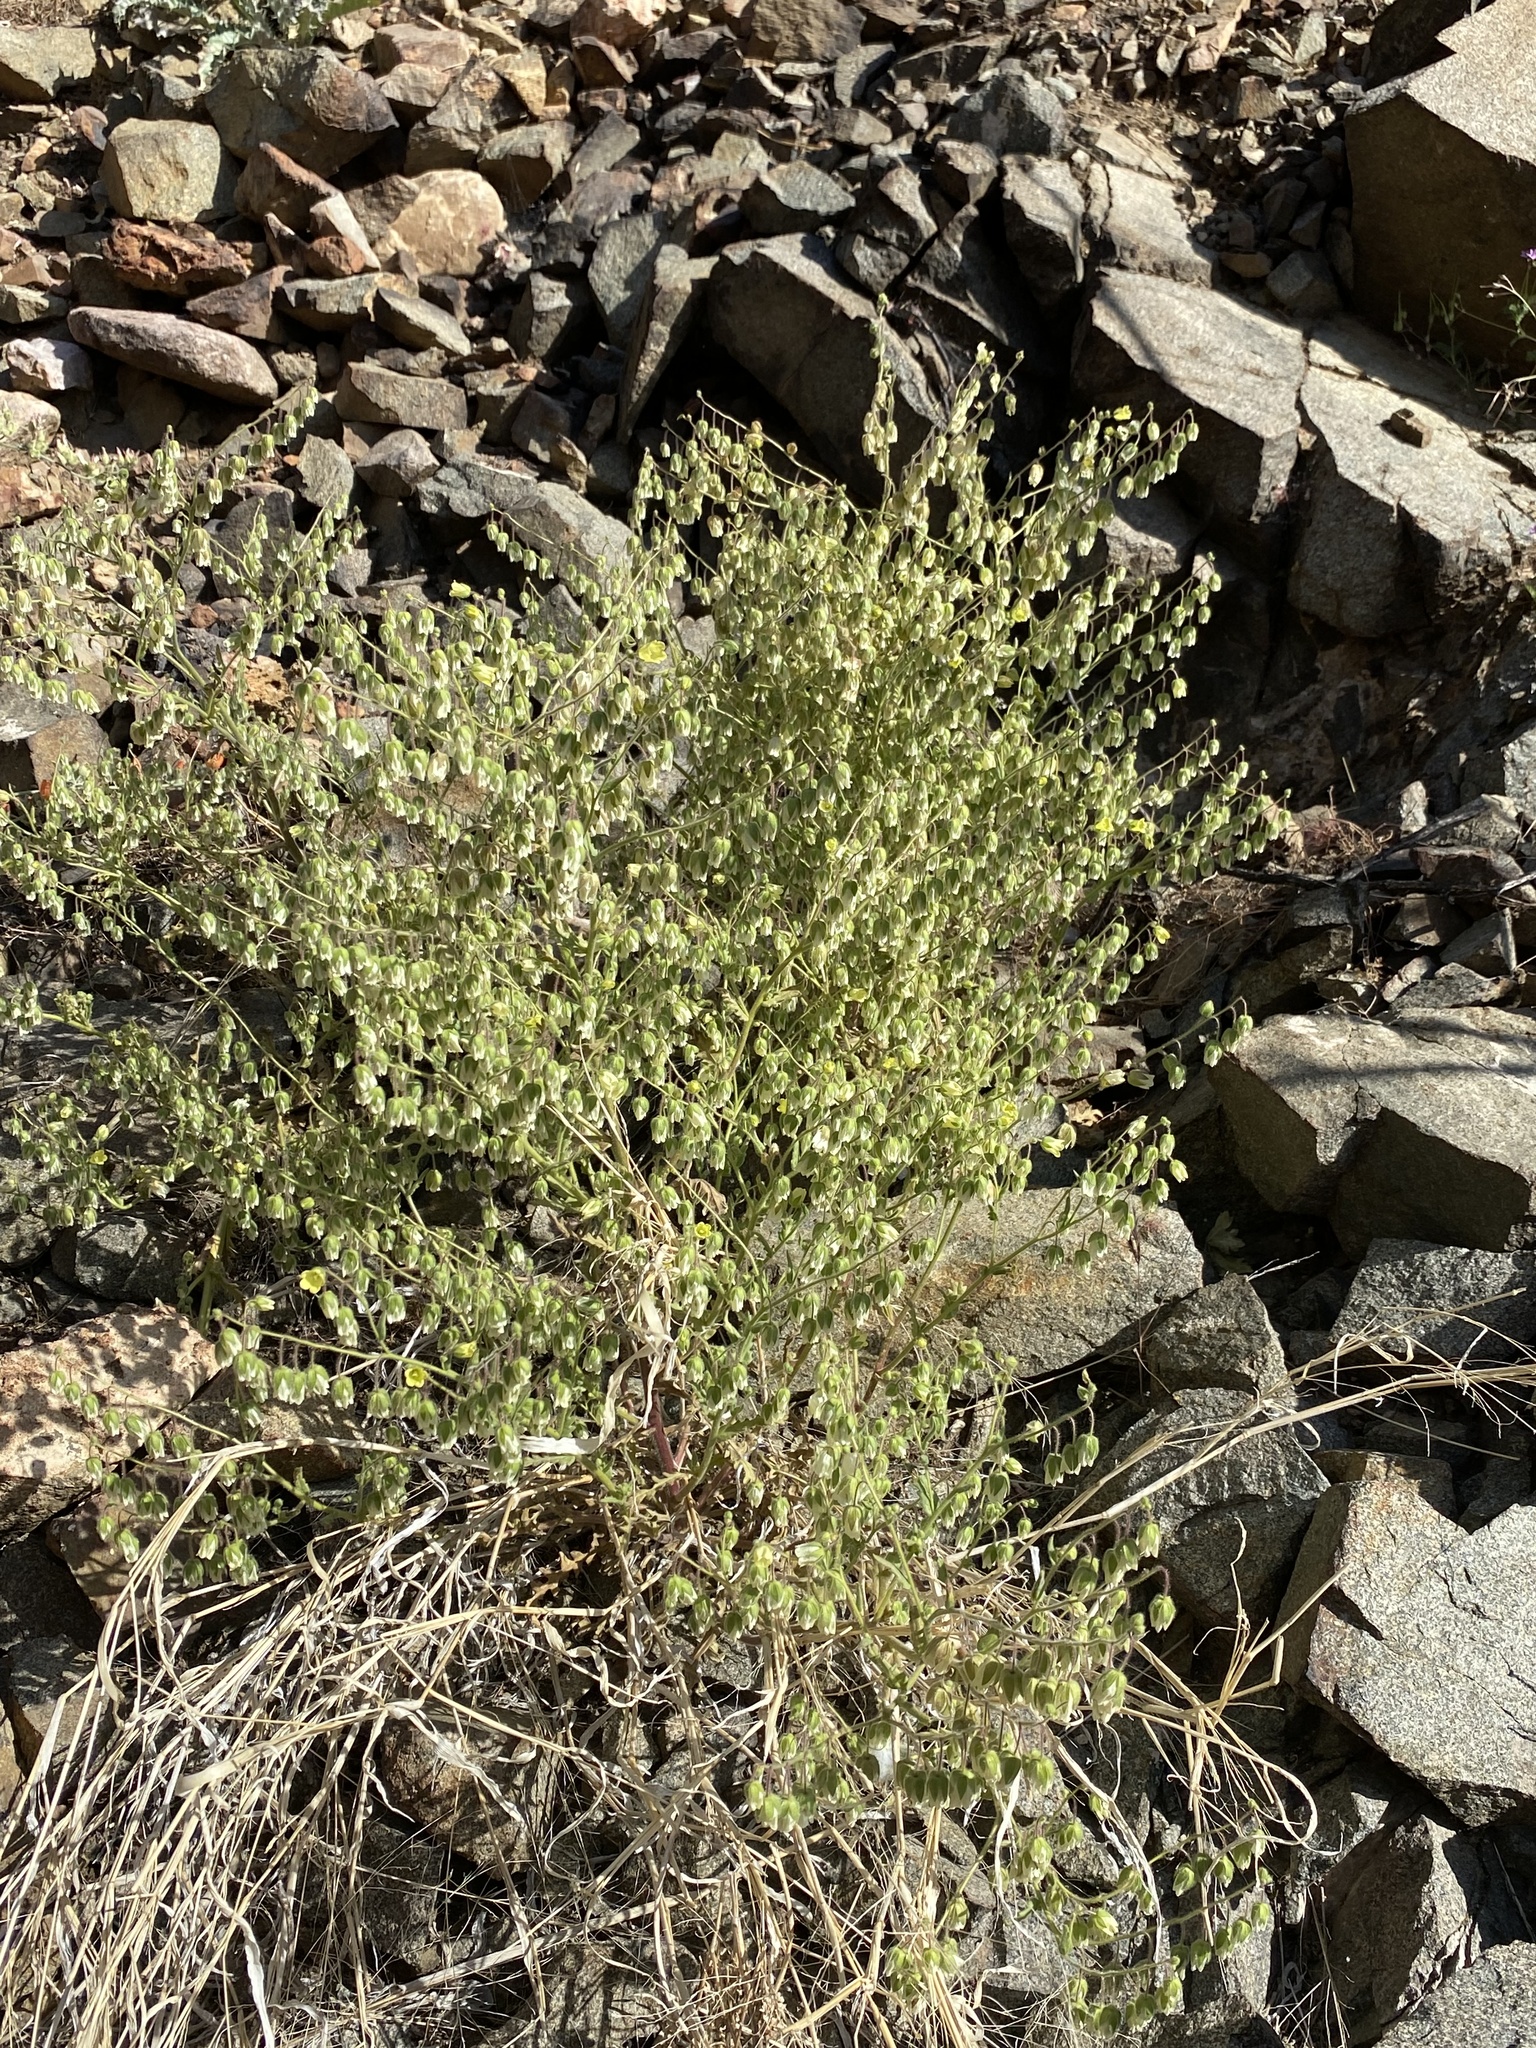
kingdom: Plantae
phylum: Tracheophyta
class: Magnoliopsida
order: Boraginales
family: Hydrophyllaceae
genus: Emmenanthe
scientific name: Emmenanthe penduliflora
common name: Whispering-bells
